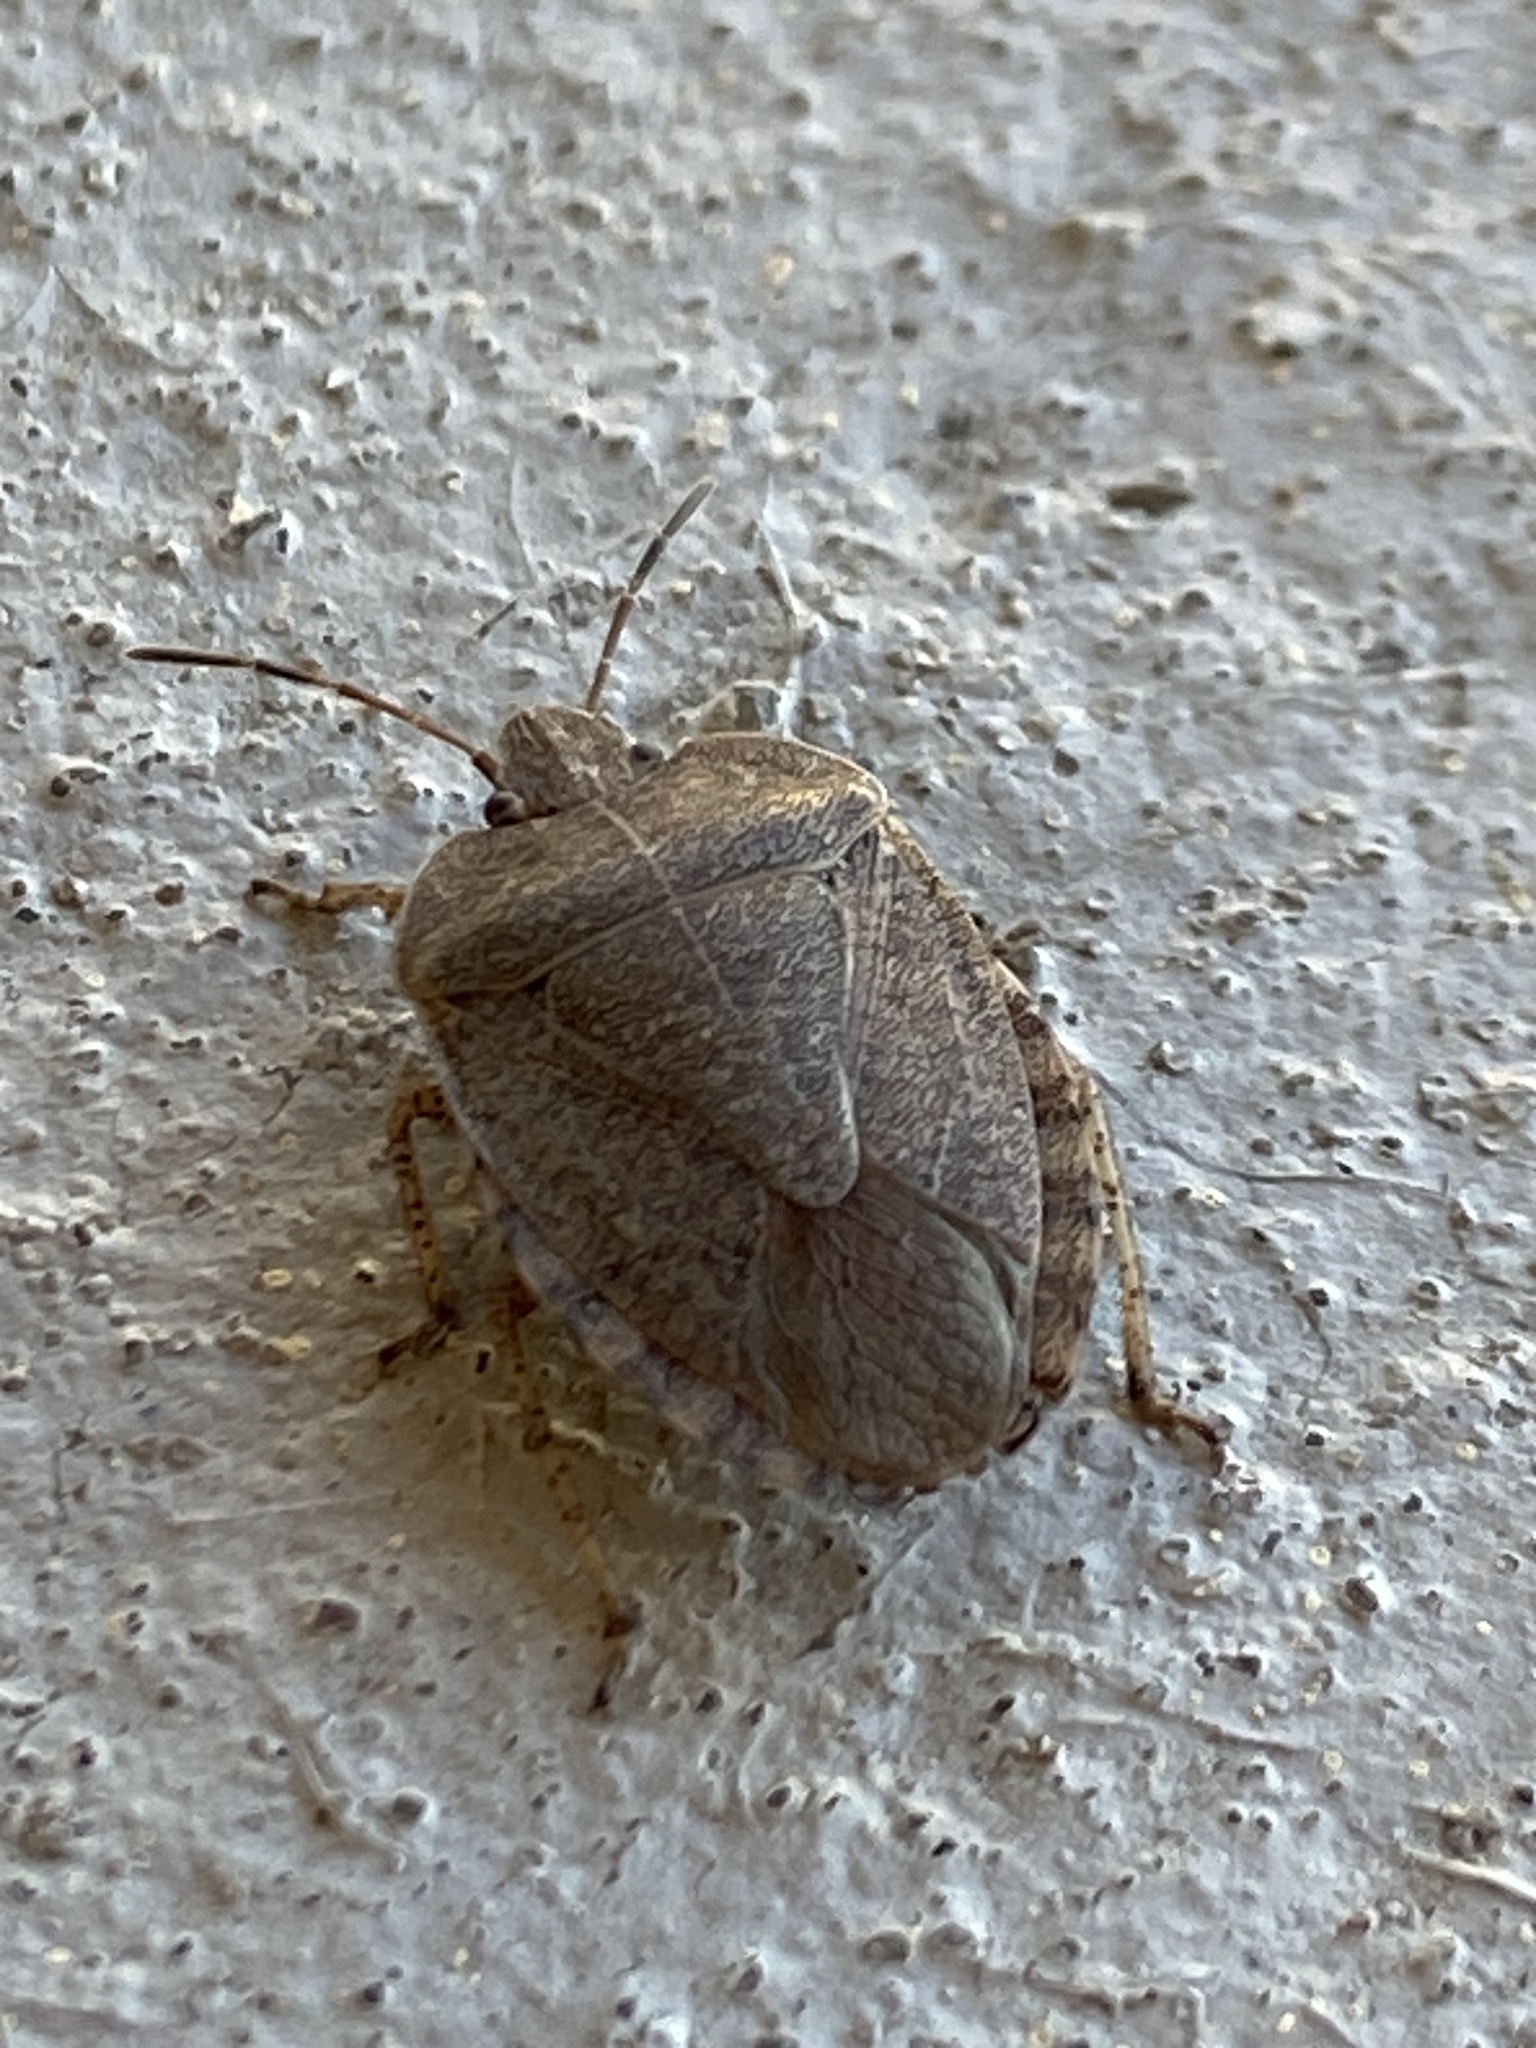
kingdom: Animalia
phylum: Arthropoda
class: Insecta
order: Hemiptera
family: Pentatomidae
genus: Menecles
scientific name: Menecles insertus
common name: Elf shoe stink bug
